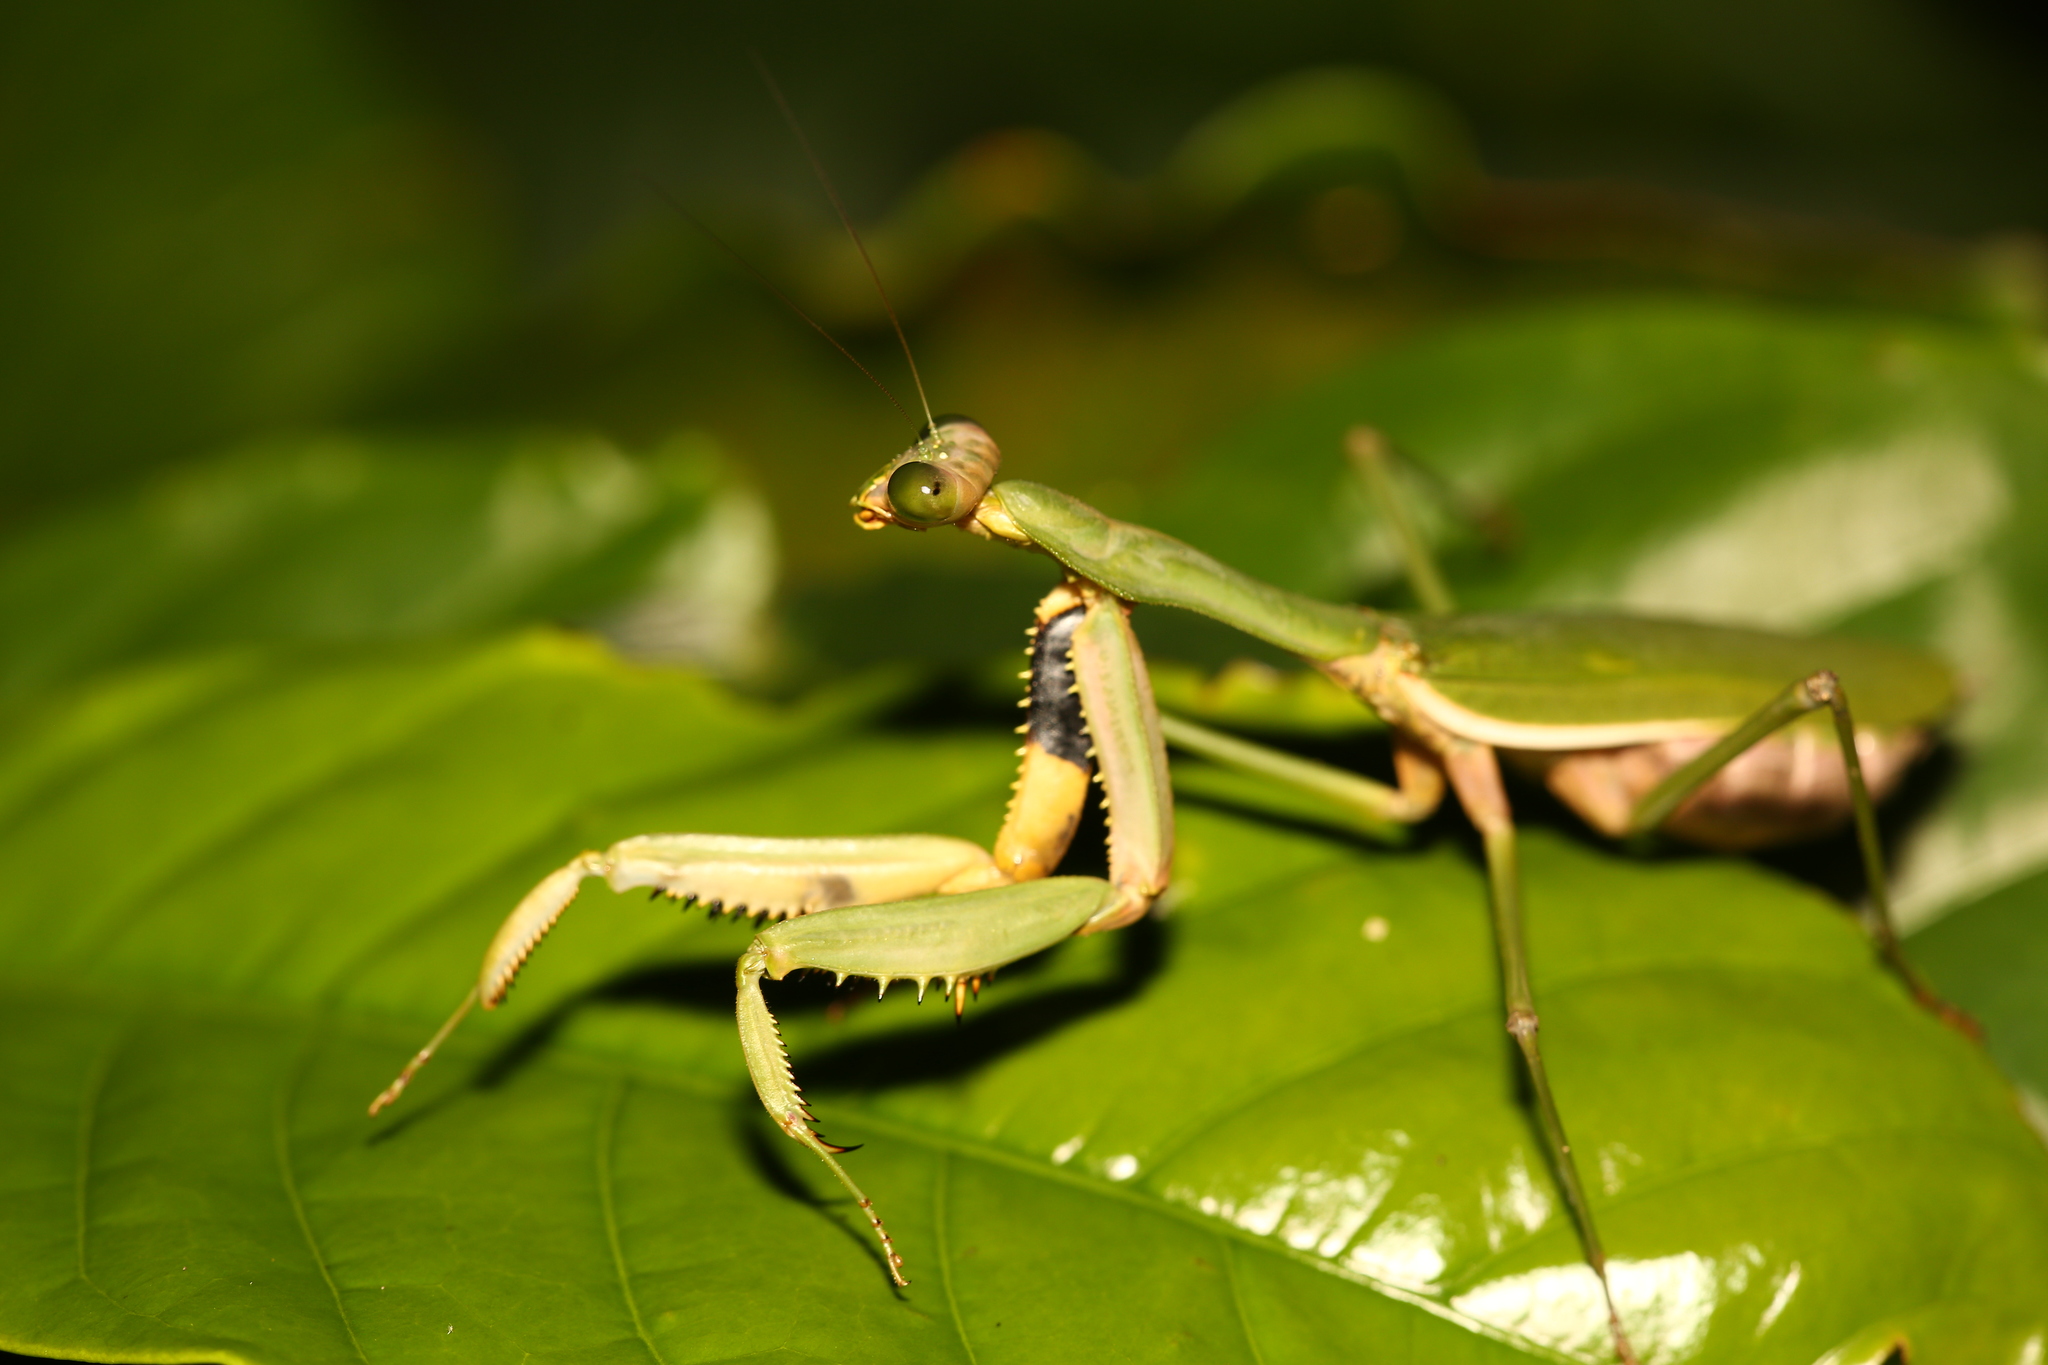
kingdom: Animalia
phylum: Arthropoda
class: Insecta
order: Mantodea
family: Mantidae
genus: Notomantis
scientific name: Notomantis brunneriana
